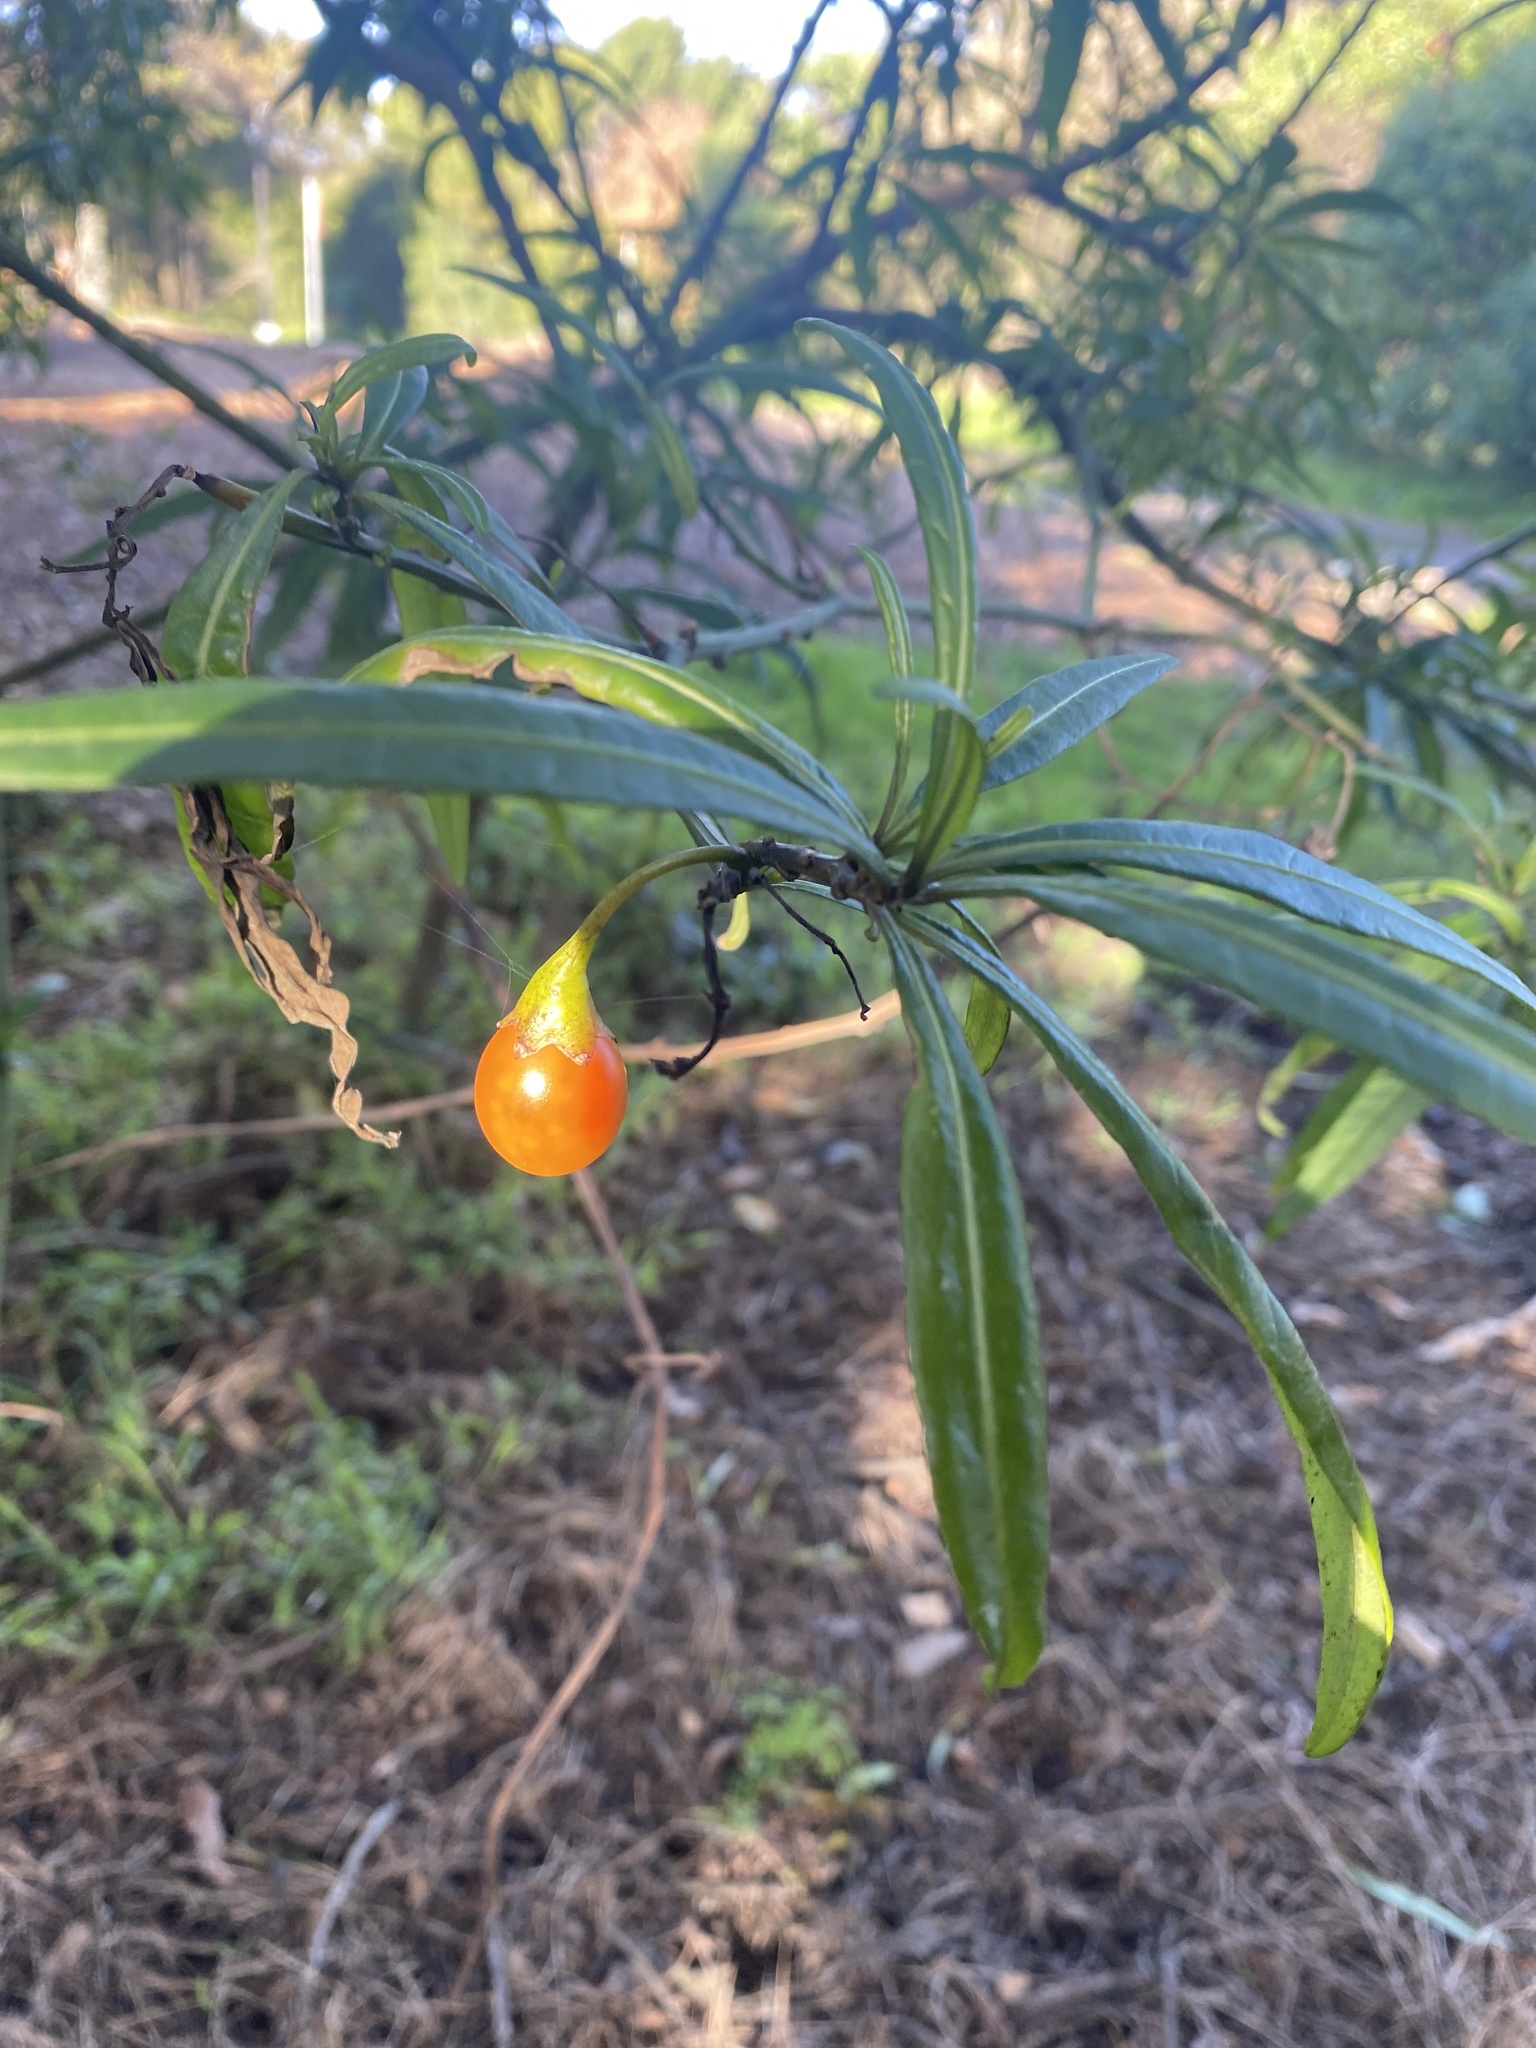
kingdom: Plantae
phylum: Tracheophyta
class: Magnoliopsida
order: Solanales
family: Solanaceae
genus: Solanum
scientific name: Solanum laciniatum
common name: Kangaroo-apple
